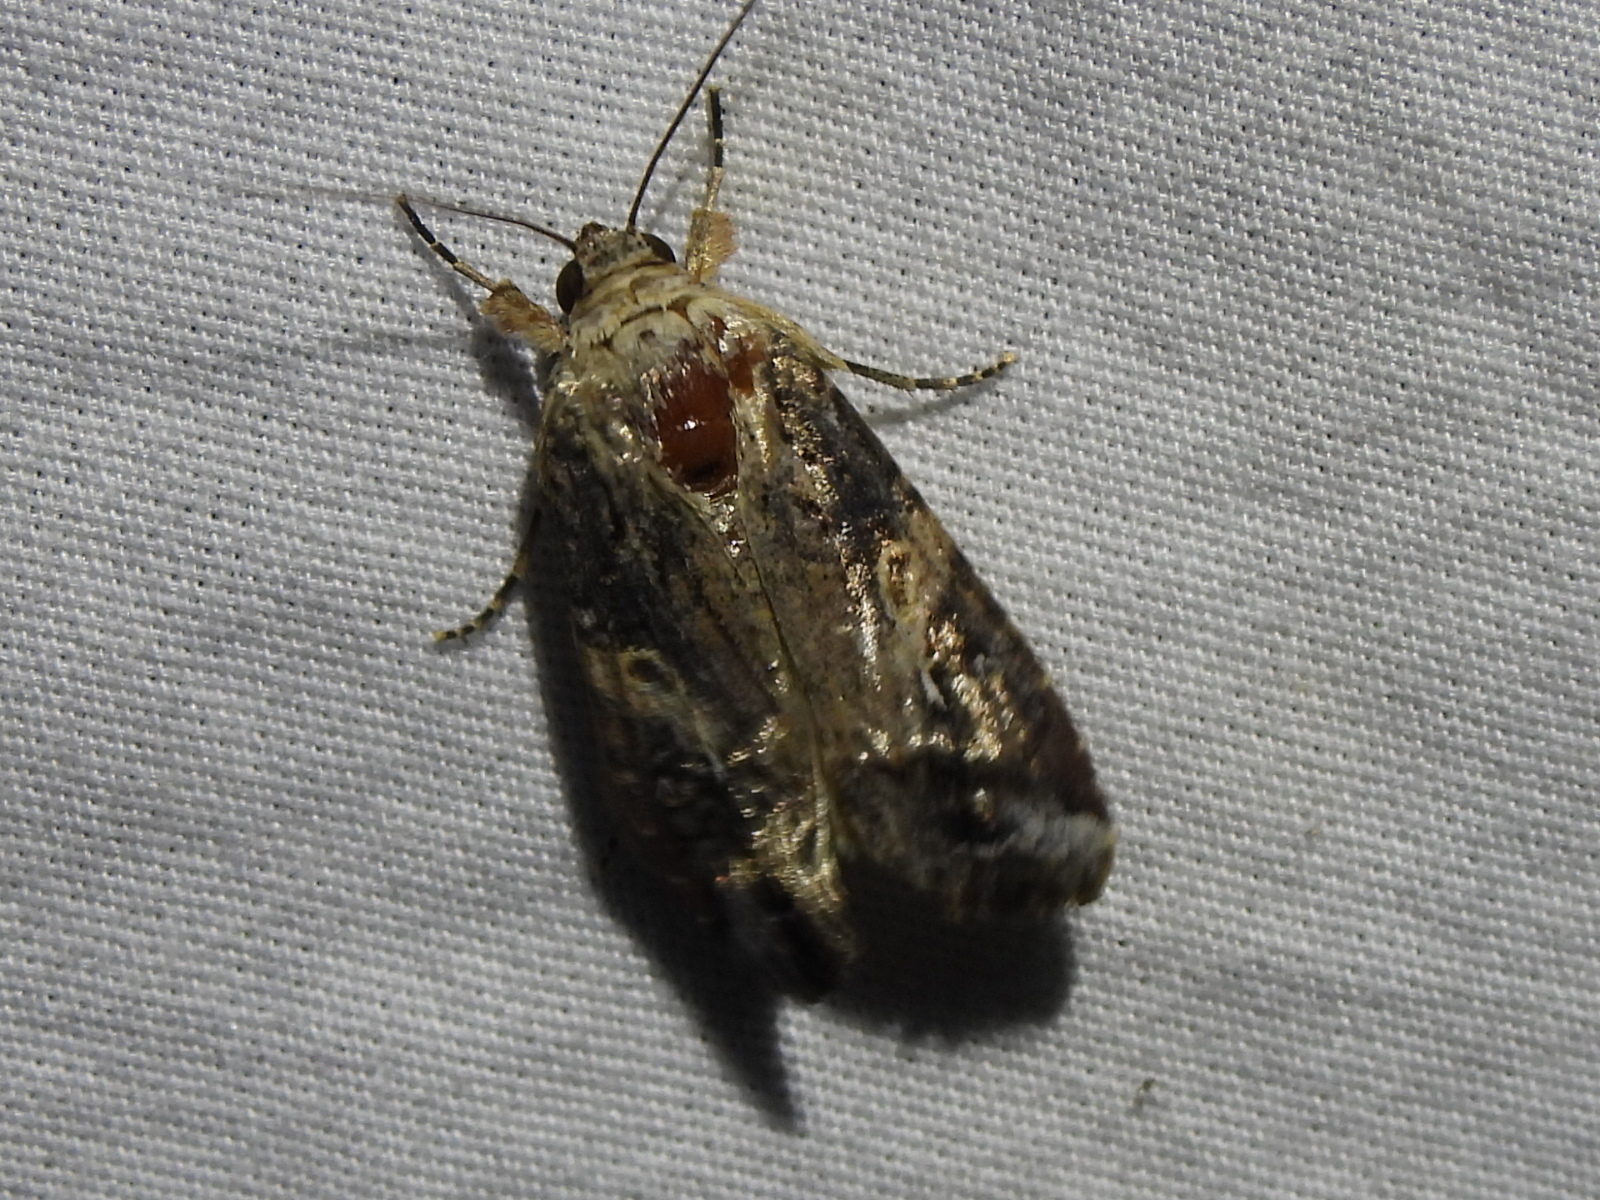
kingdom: Animalia
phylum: Arthropoda
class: Insecta
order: Lepidoptera
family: Noctuidae
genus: Spodoptera
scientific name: Spodoptera frugiperda
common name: Fall armyworm
